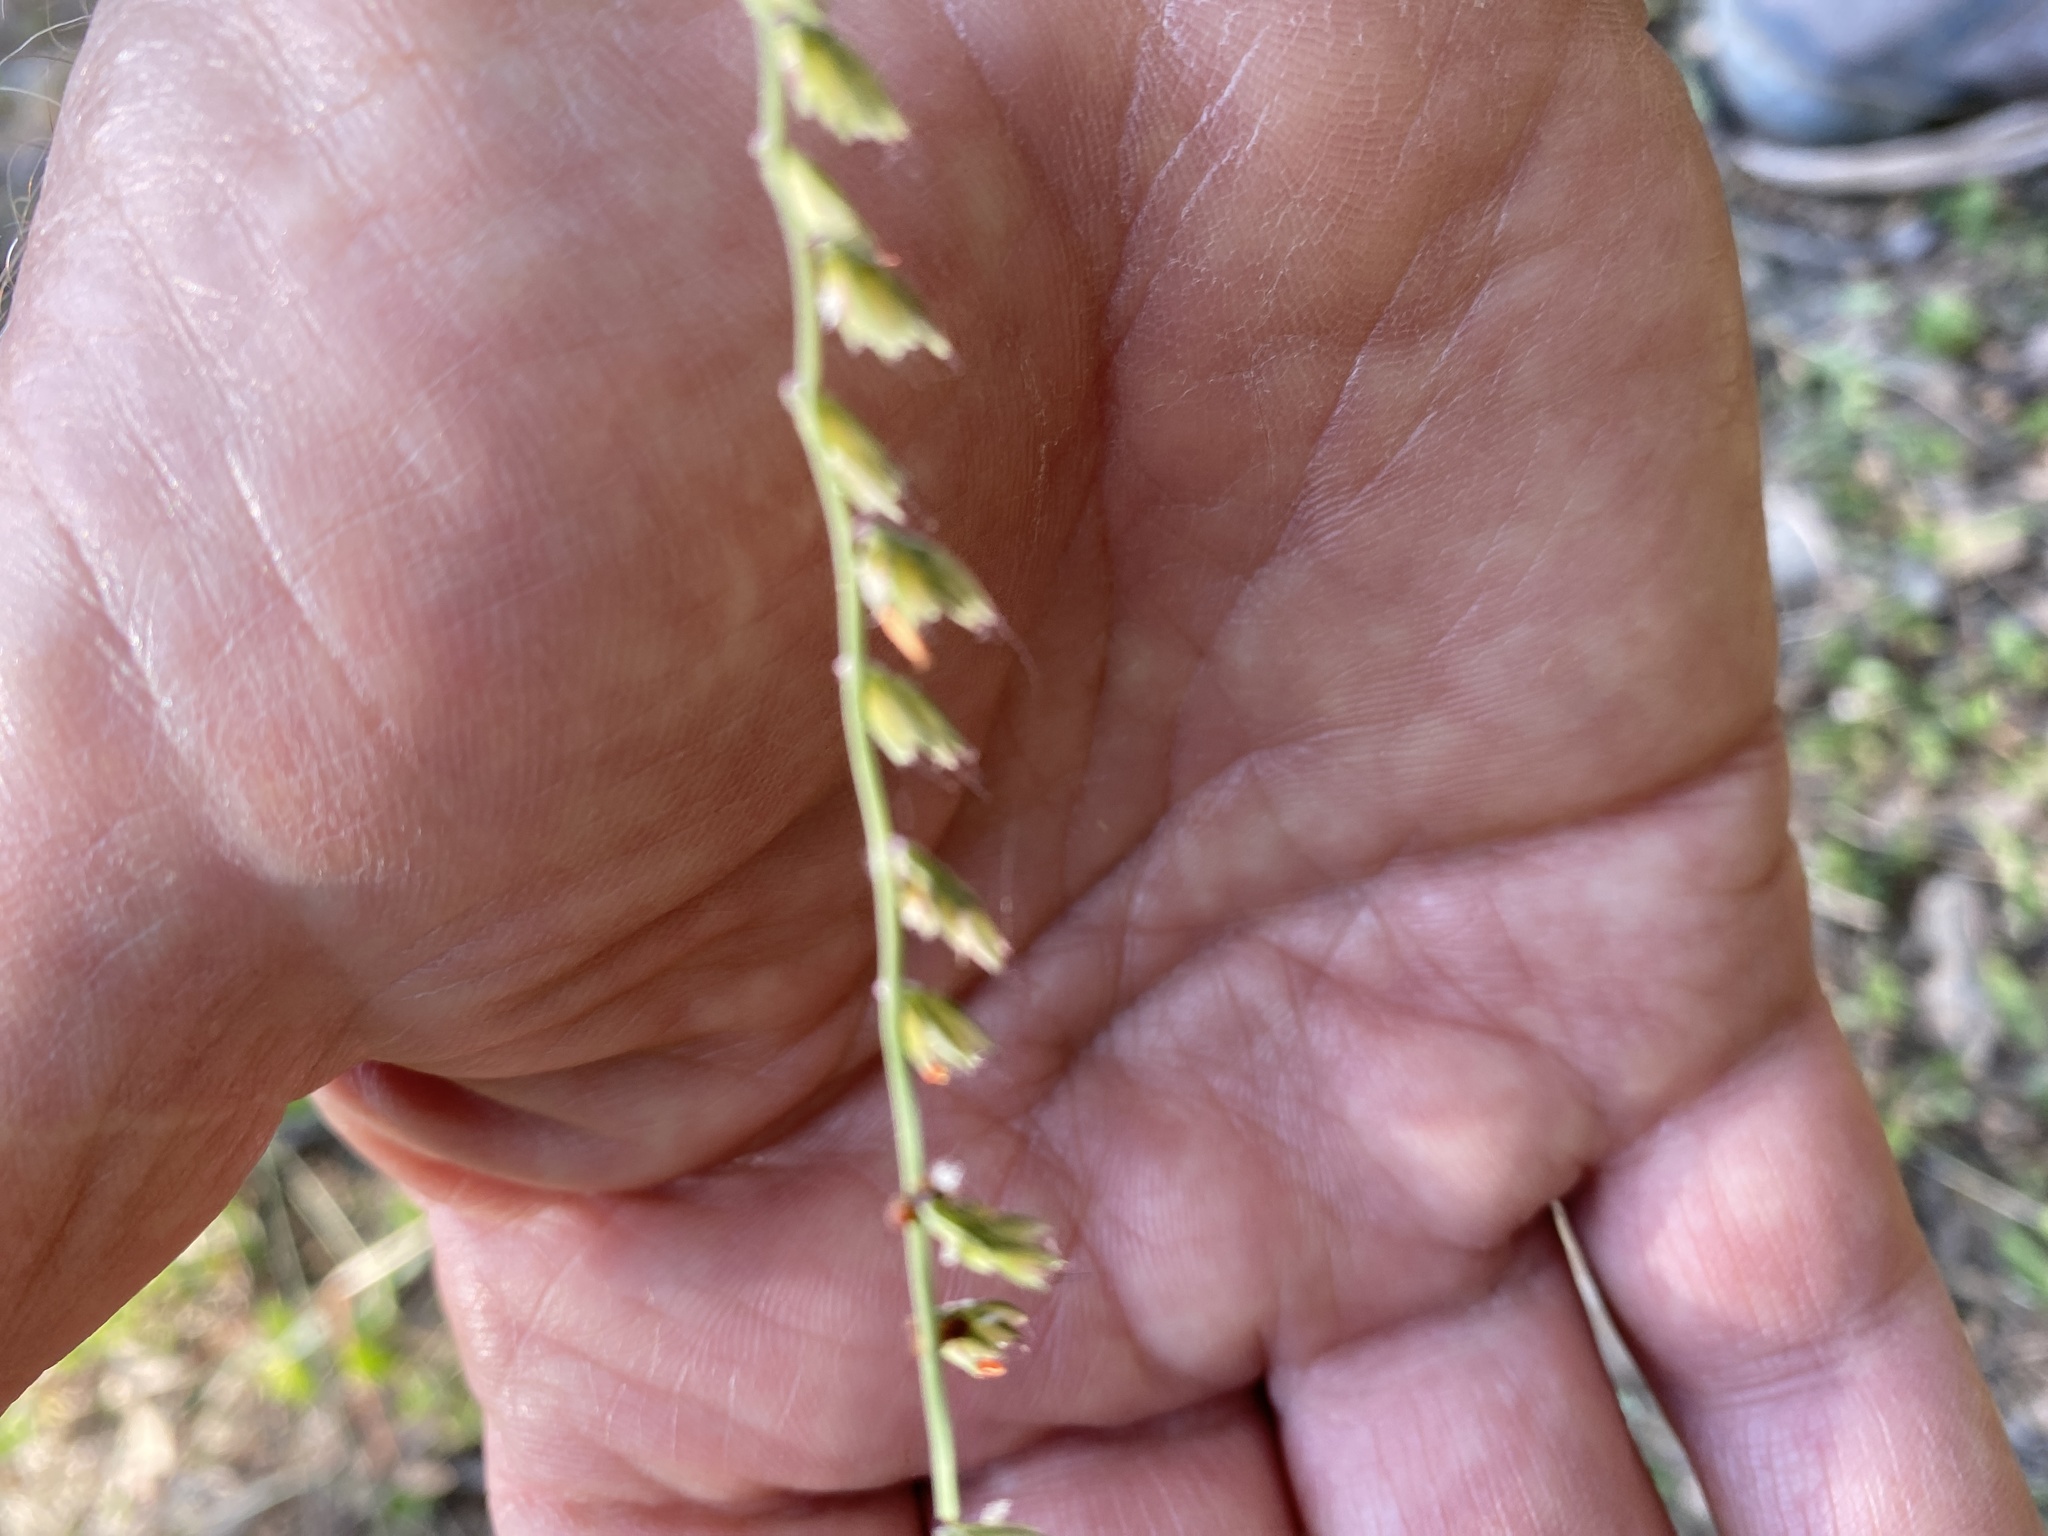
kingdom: Plantae
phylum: Tracheophyta
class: Liliopsida
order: Poales
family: Poaceae
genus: Bouteloua
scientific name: Bouteloua curtipendula
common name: Side-oats grama
